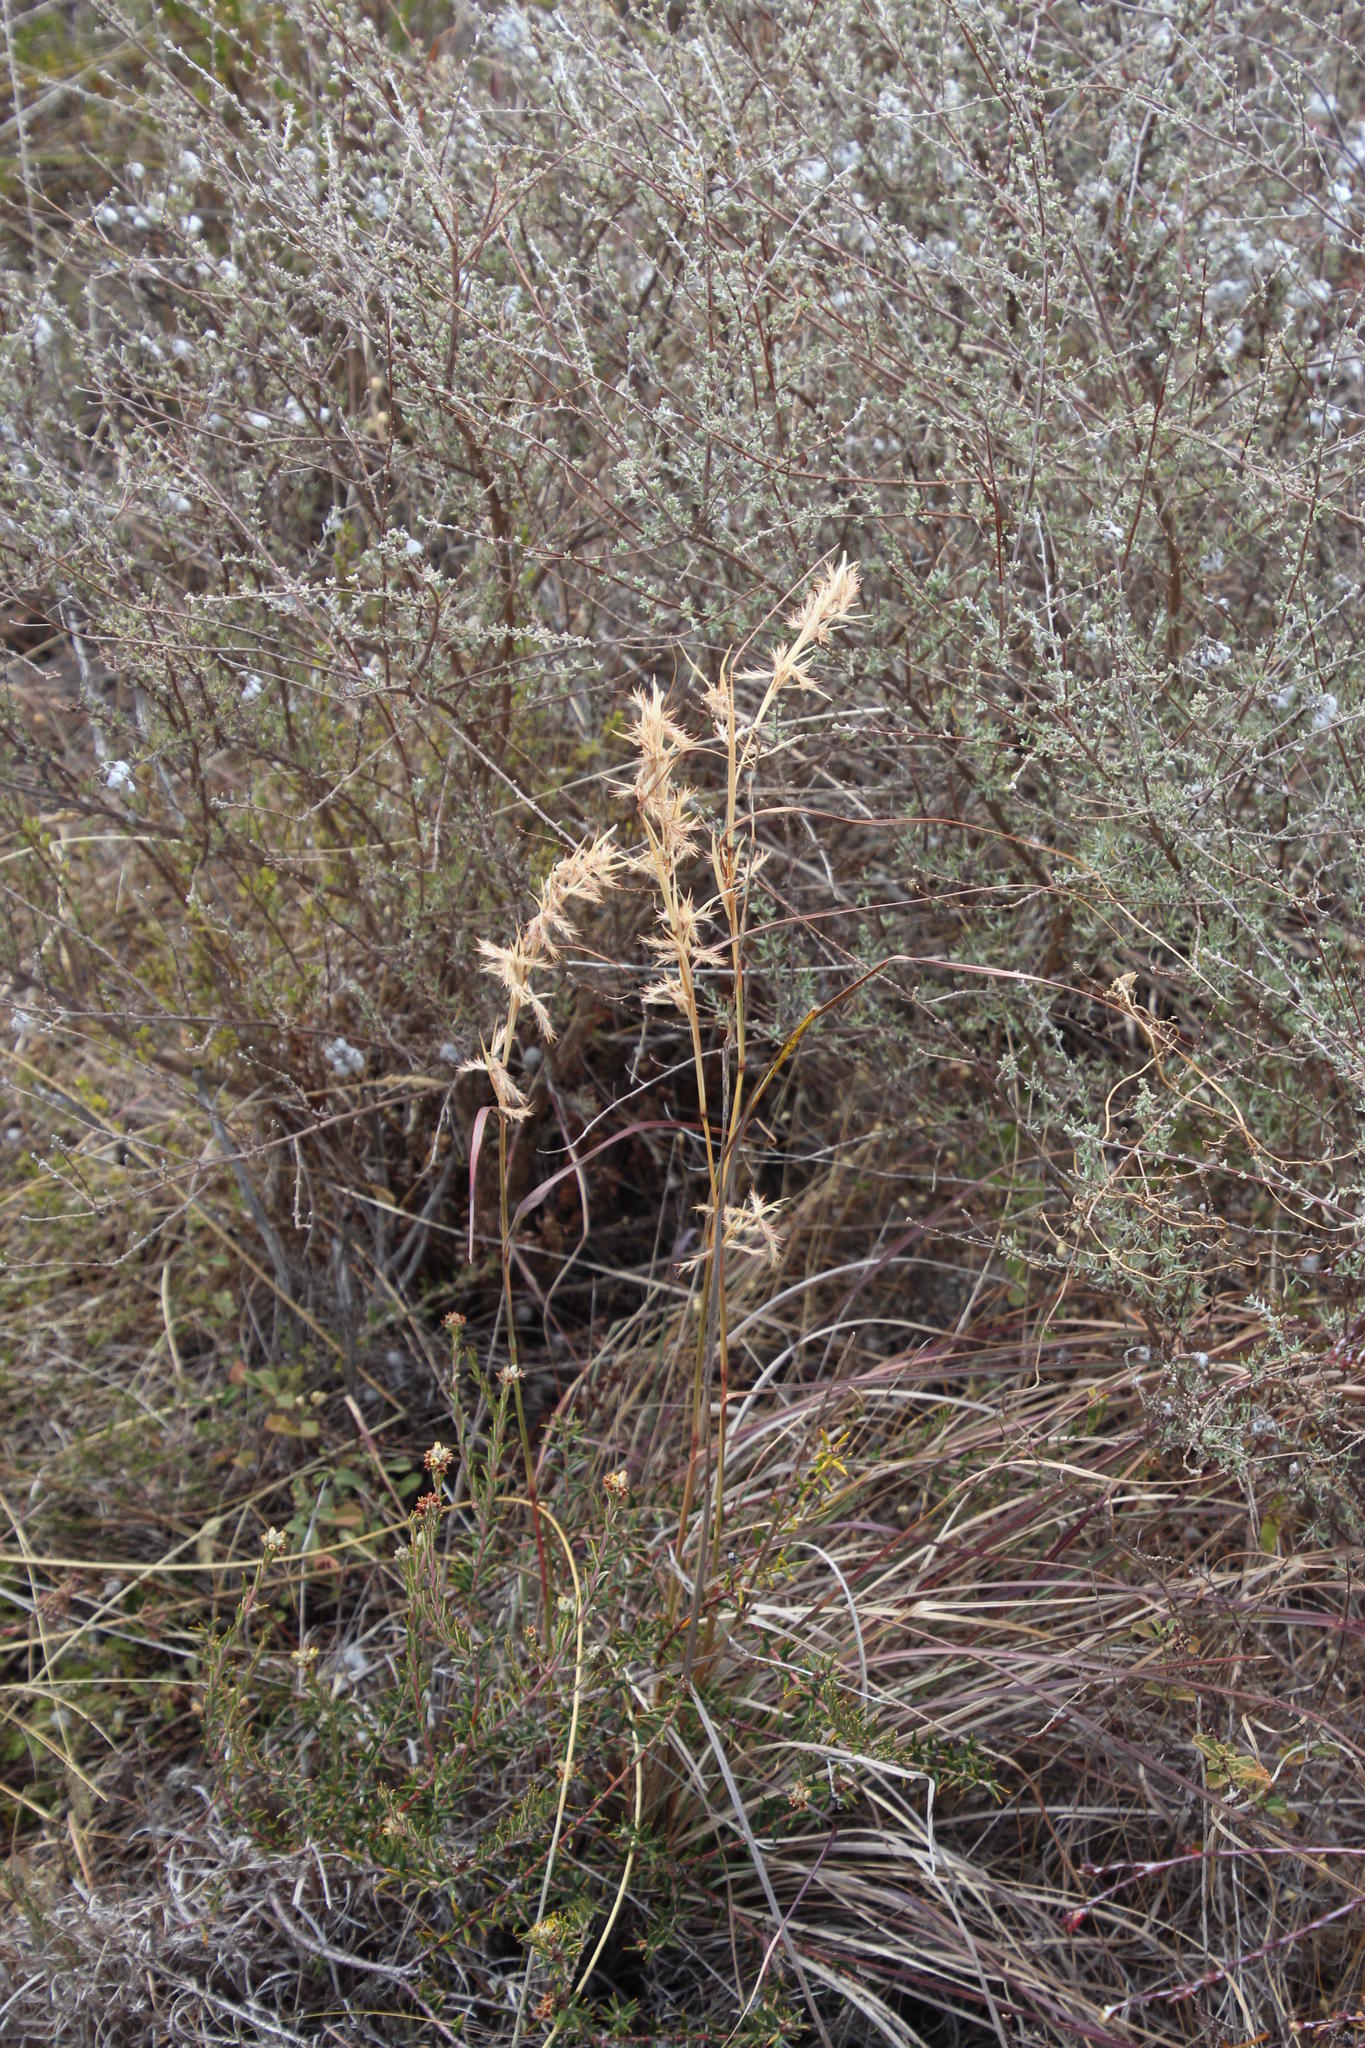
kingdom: Plantae
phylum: Tracheophyta
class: Liliopsida
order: Poales
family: Poaceae
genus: Cymbopogon
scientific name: Cymbopogon marginatus
